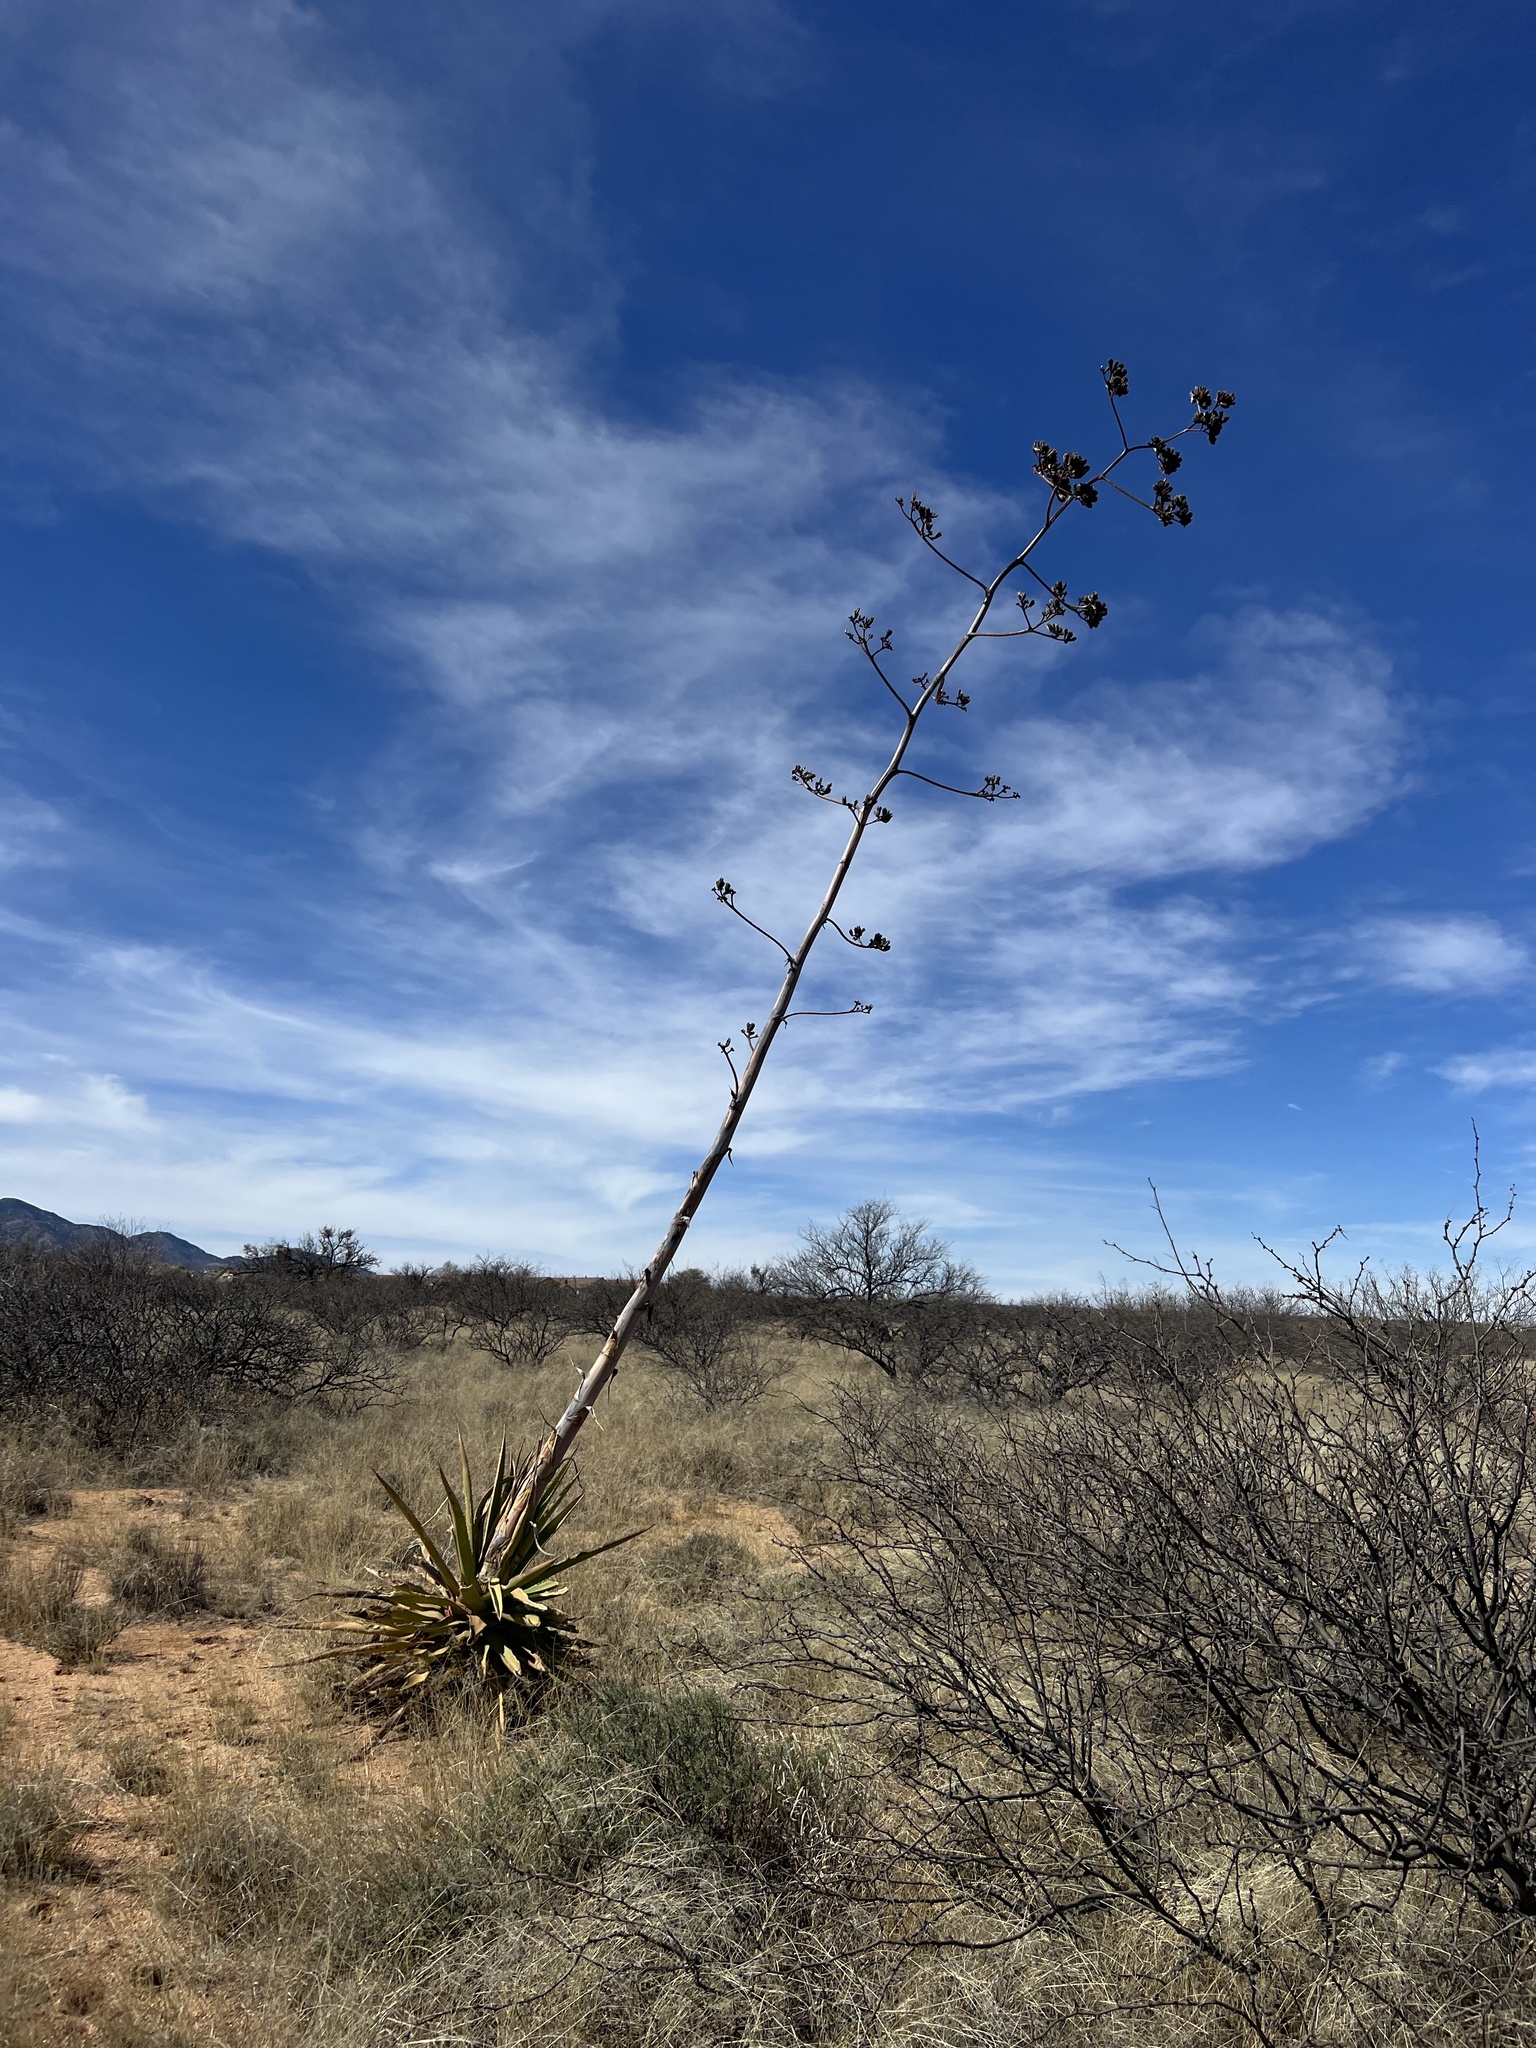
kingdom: Plantae
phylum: Tracheophyta
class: Liliopsida
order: Asparagales
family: Asparagaceae
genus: Agave
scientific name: Agave palmeri
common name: Palmer agave
